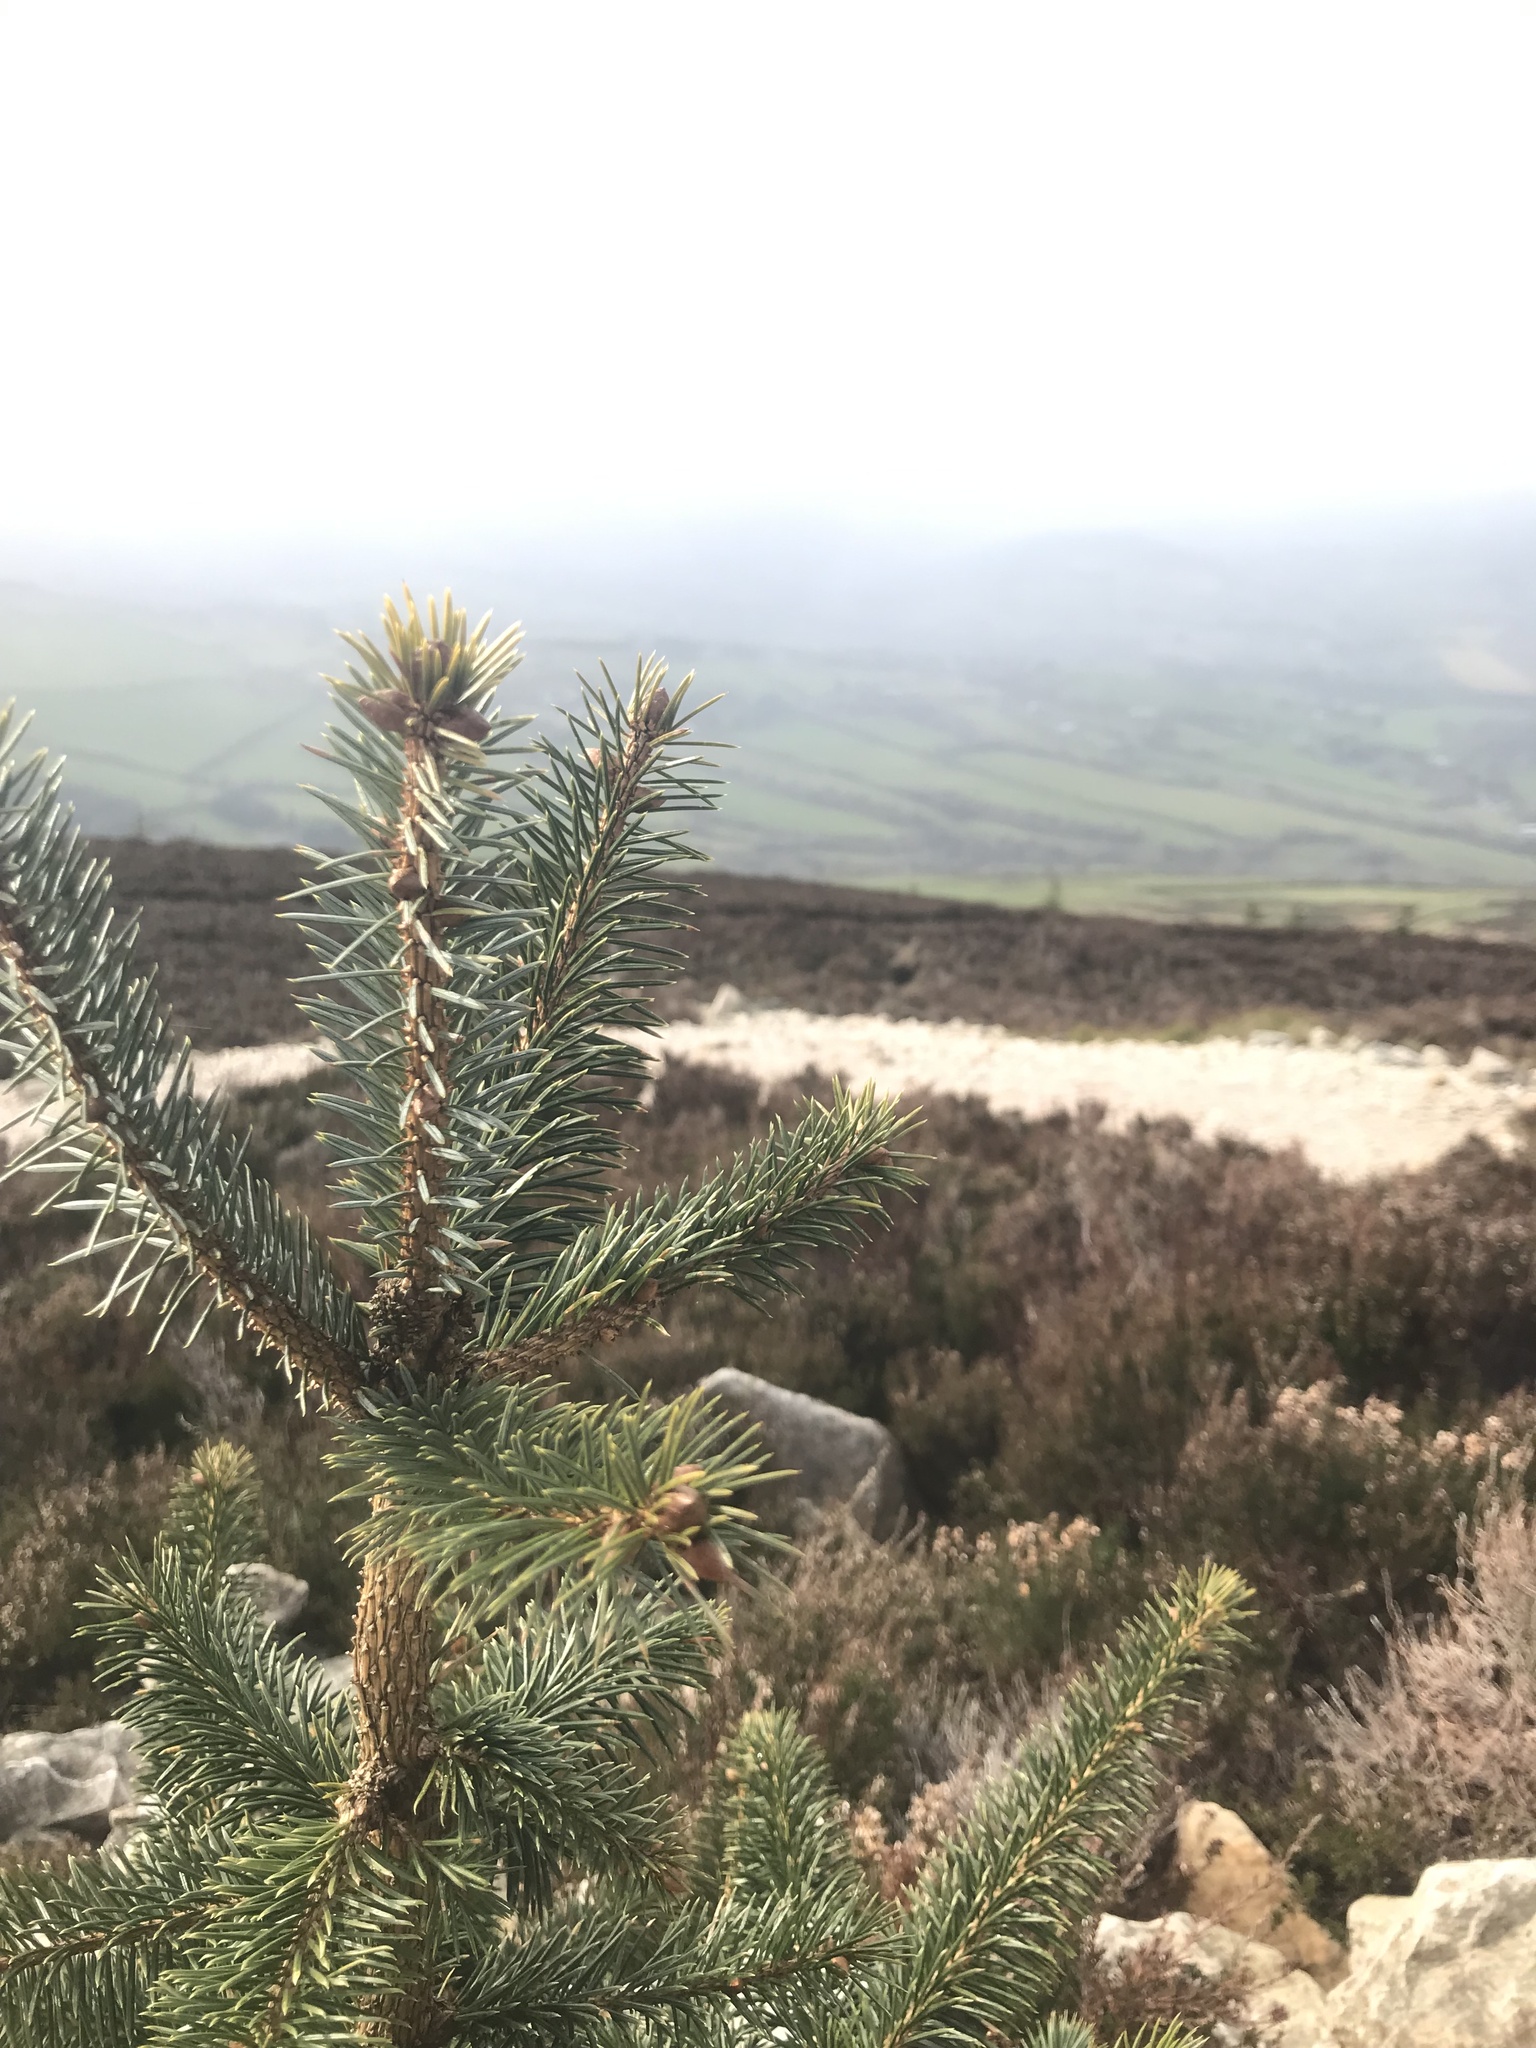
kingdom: Plantae
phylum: Tracheophyta
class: Pinopsida
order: Pinales
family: Pinaceae
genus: Picea
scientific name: Picea sitchensis
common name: Sitka spruce
